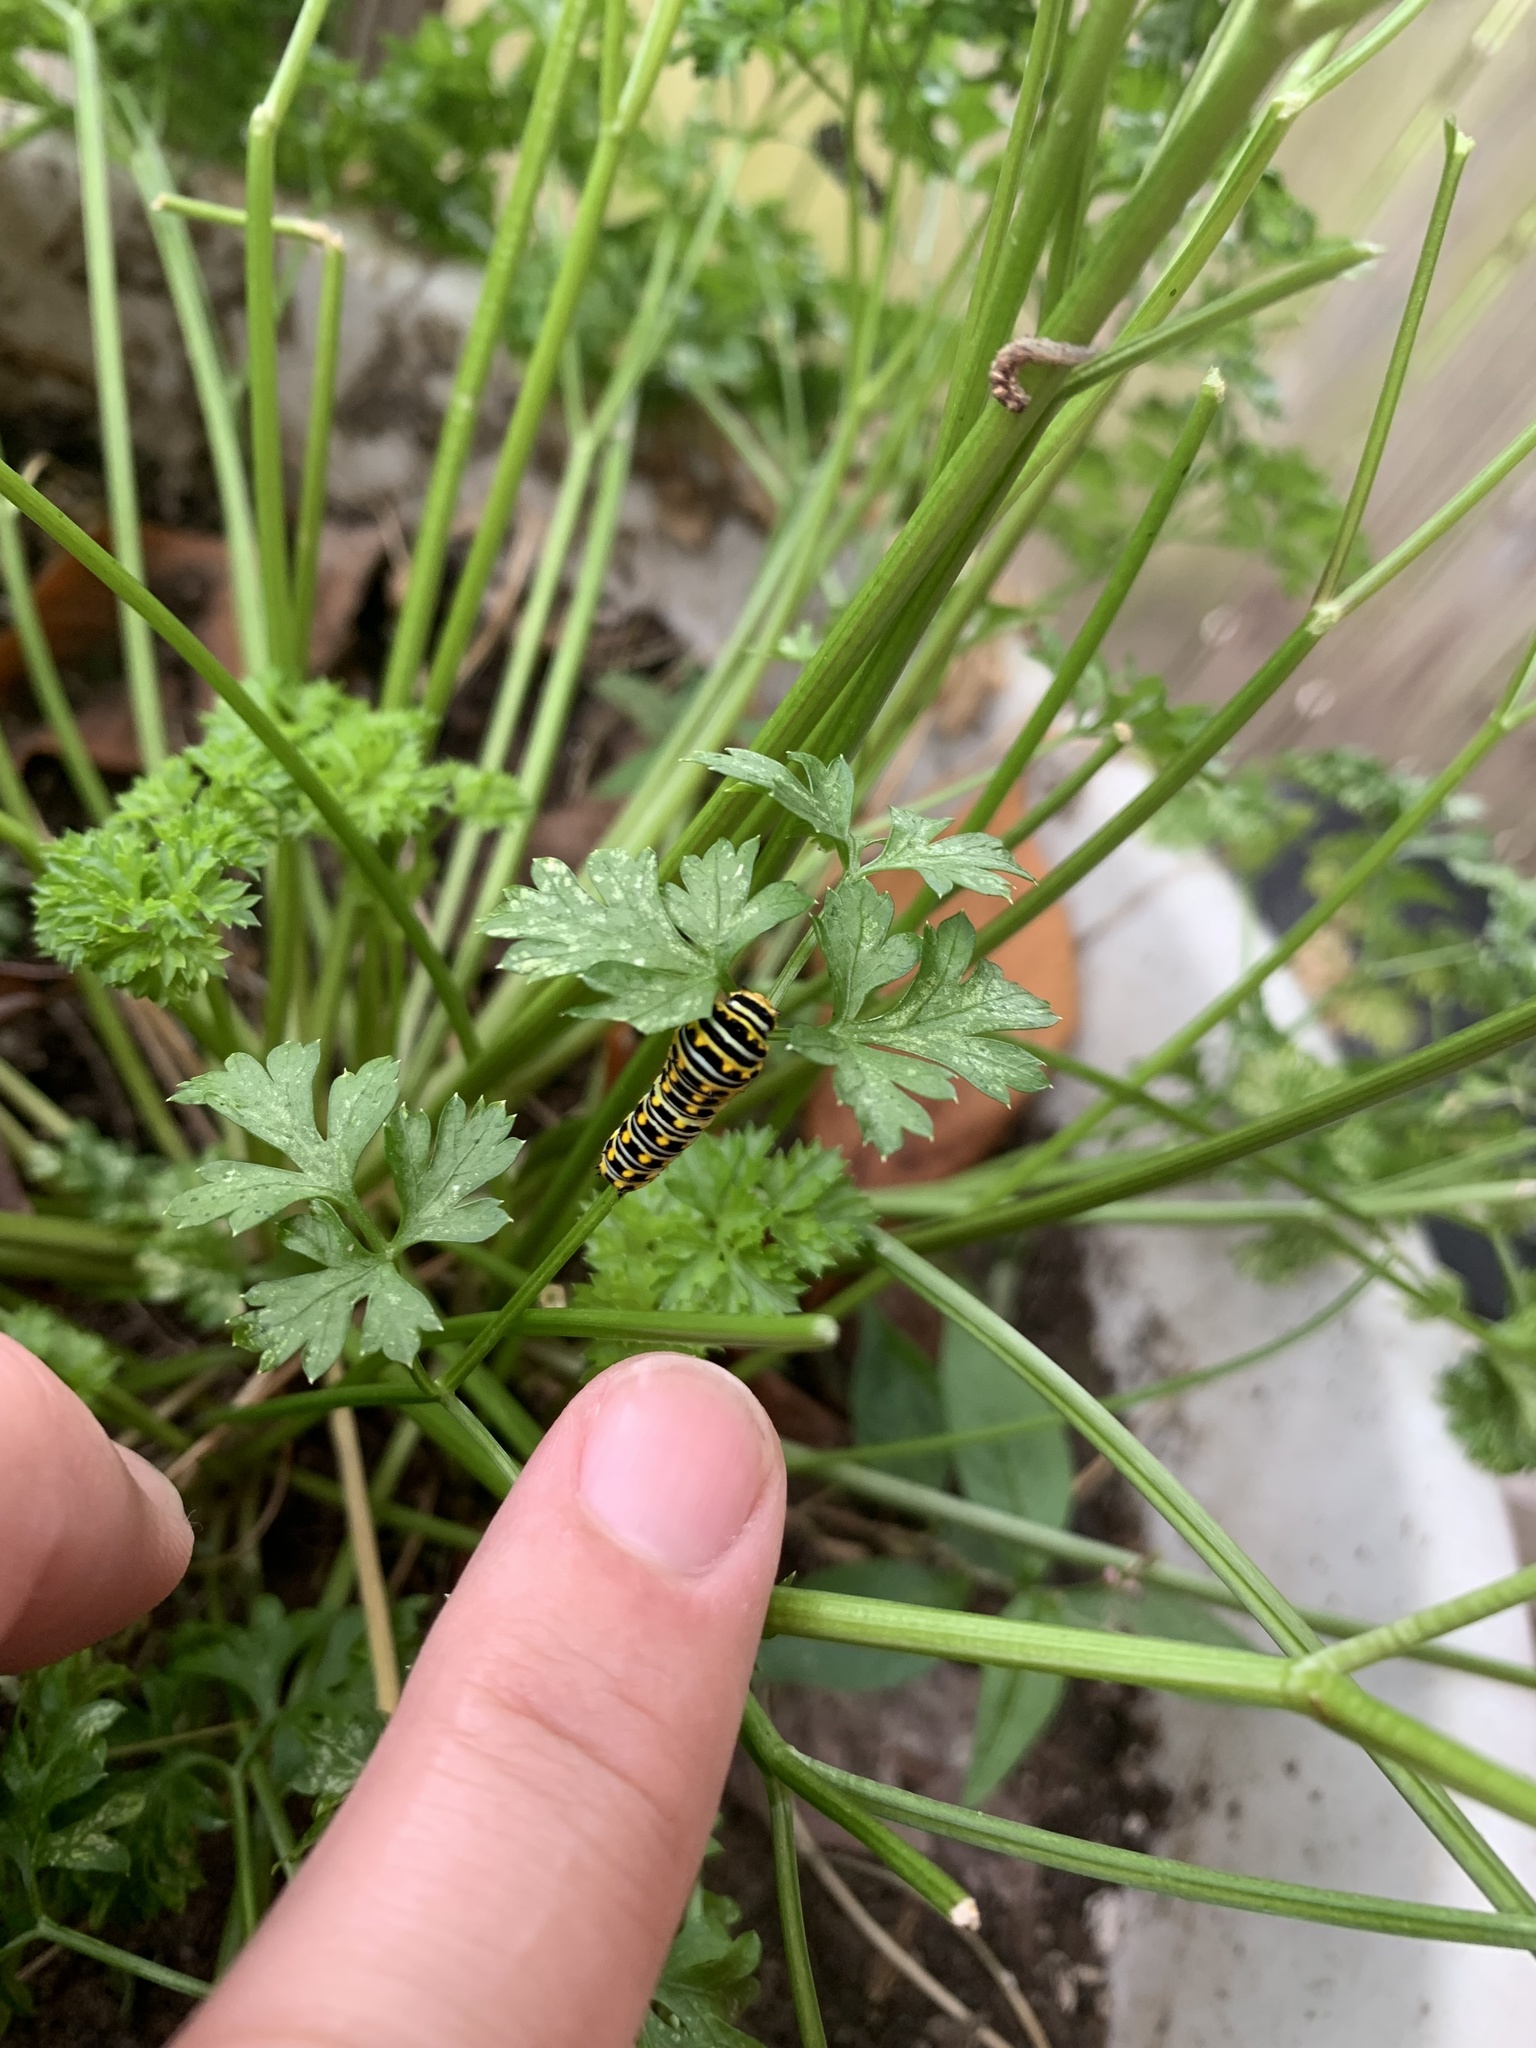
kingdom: Animalia
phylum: Arthropoda
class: Insecta
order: Lepidoptera
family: Papilionidae
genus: Papilio
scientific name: Papilio polyxenes
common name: Black swallowtail
